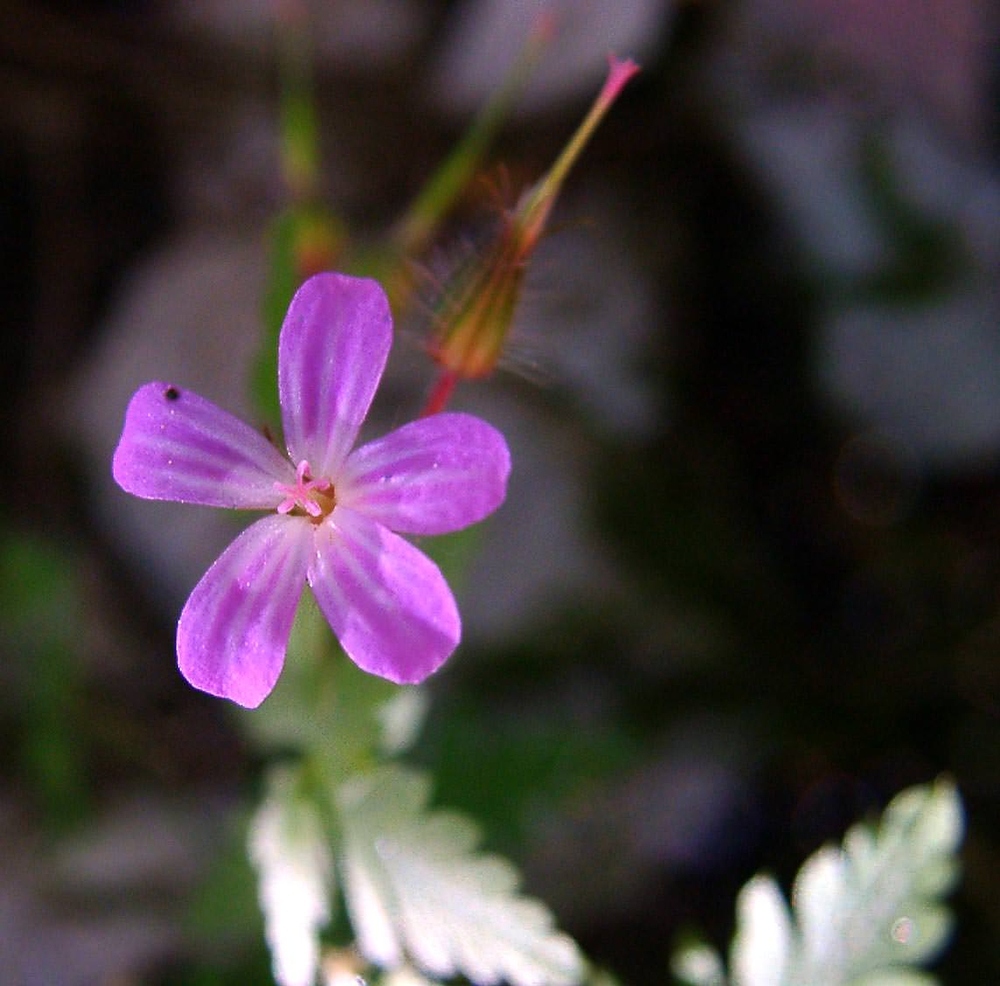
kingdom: Plantae
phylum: Tracheophyta
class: Magnoliopsida
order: Geraniales
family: Geraniaceae
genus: Geranium
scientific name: Geranium robertianum
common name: Herb-robert
